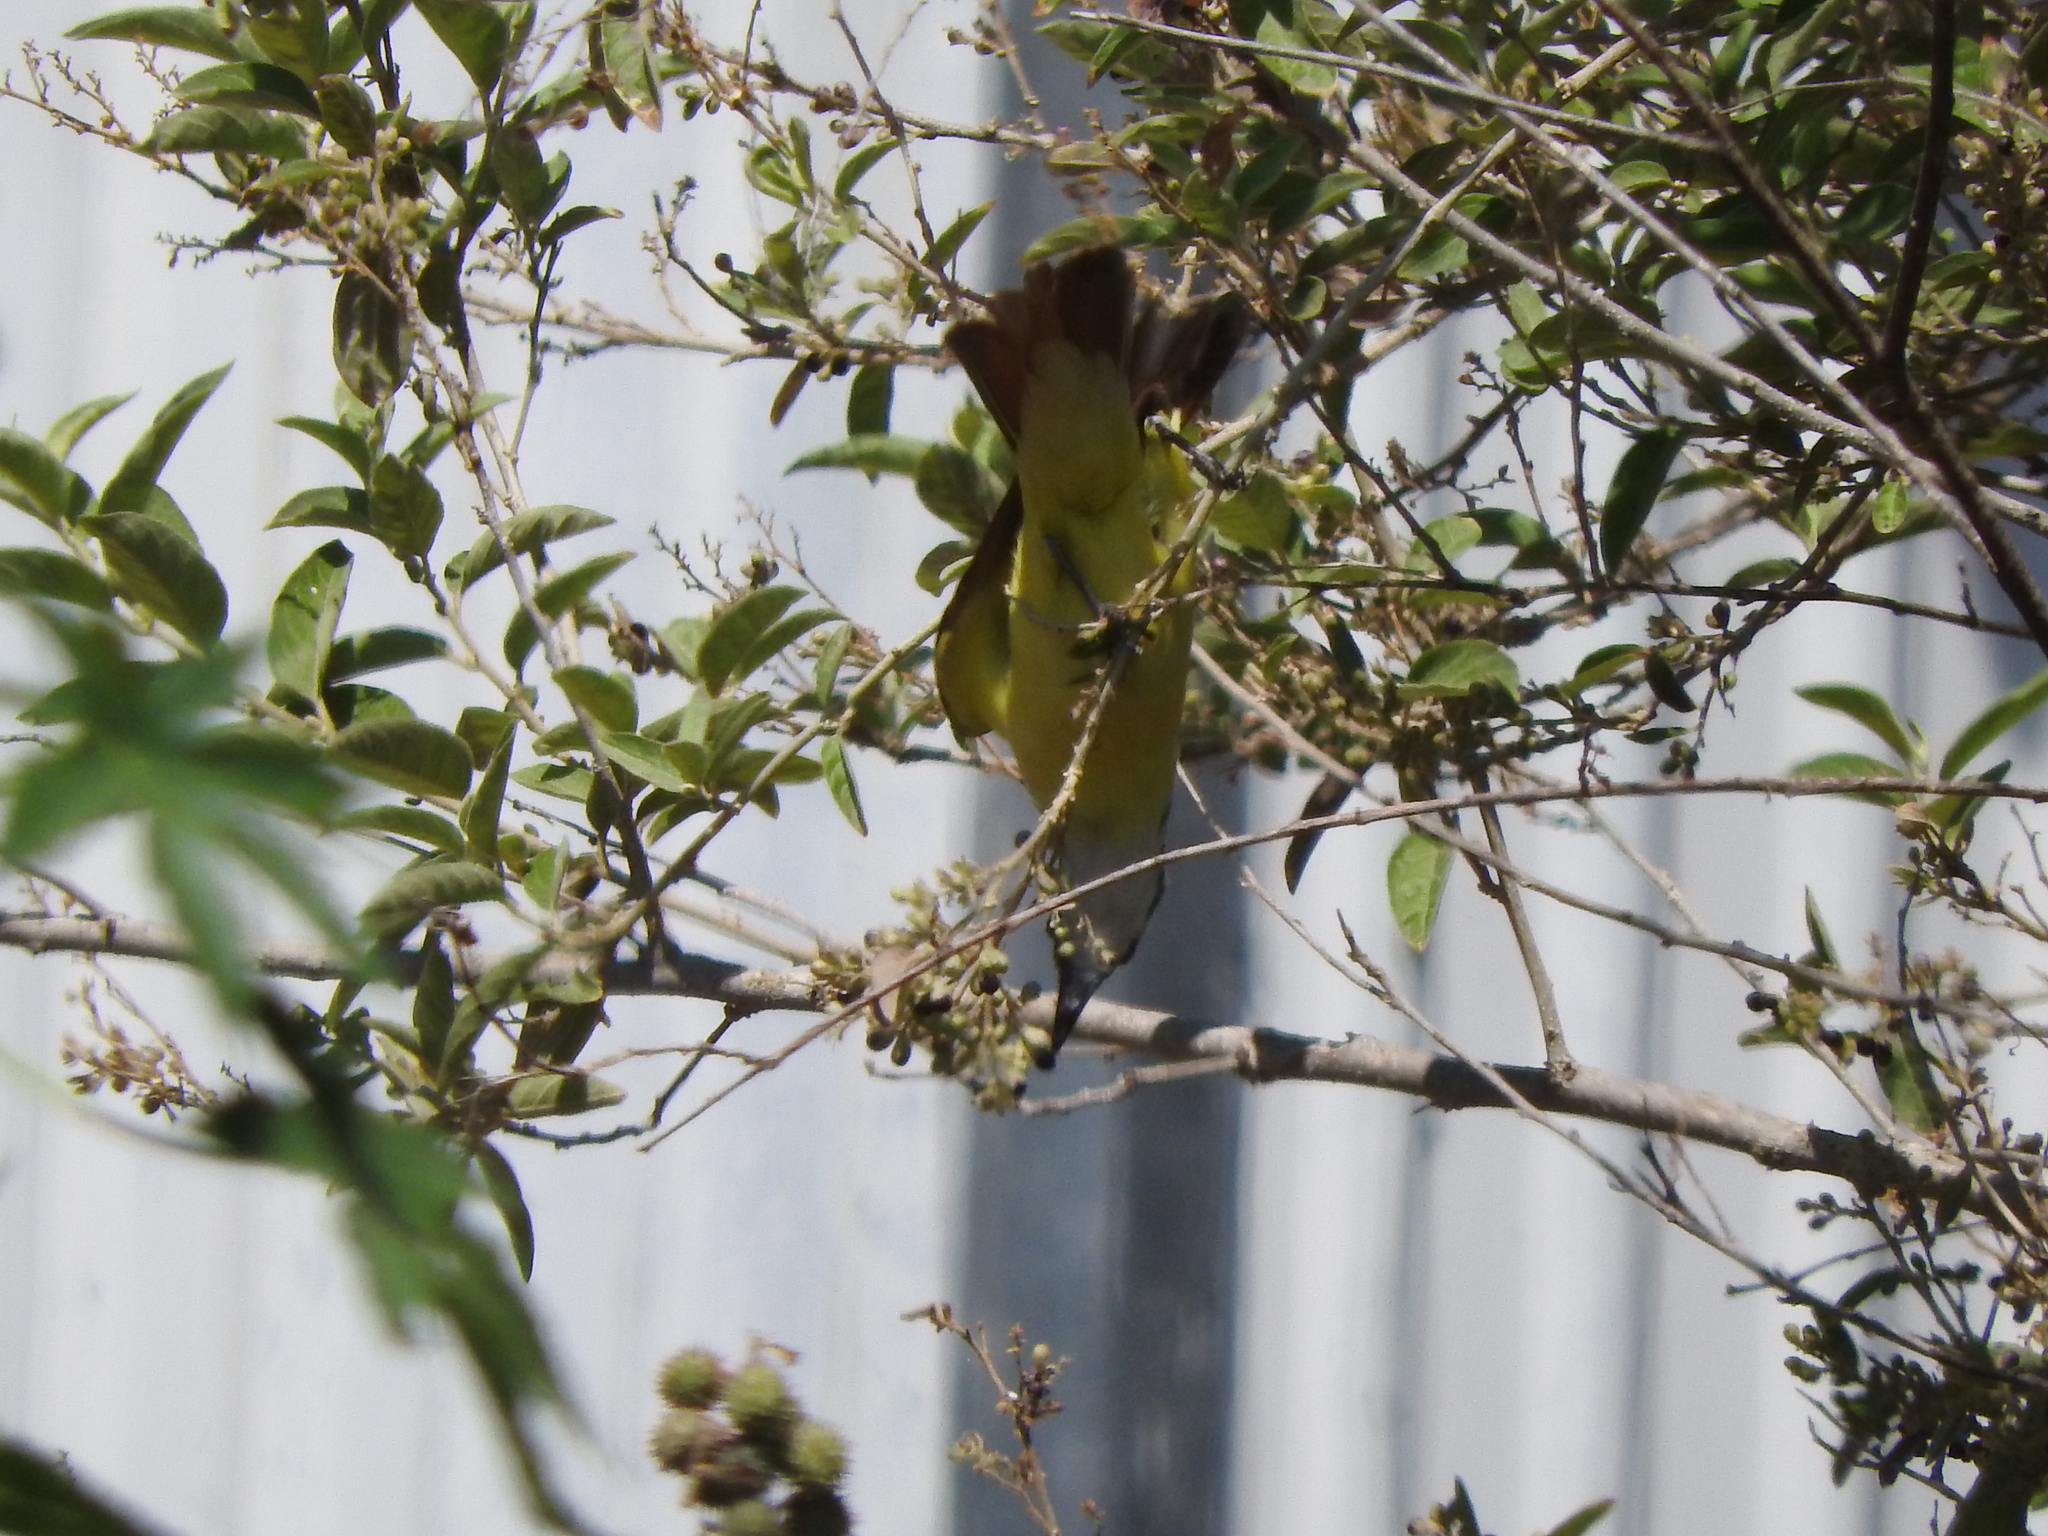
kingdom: Animalia
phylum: Chordata
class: Aves
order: Passeriformes
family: Tyrannidae
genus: Pitangus
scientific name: Pitangus sulphuratus
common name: Great kiskadee
